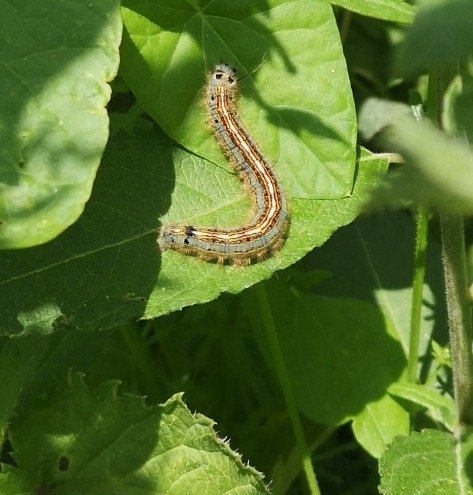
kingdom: Animalia
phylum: Arthropoda
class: Insecta
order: Lepidoptera
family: Lasiocampidae
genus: Malacosoma
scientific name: Malacosoma neustria
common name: The lackey
